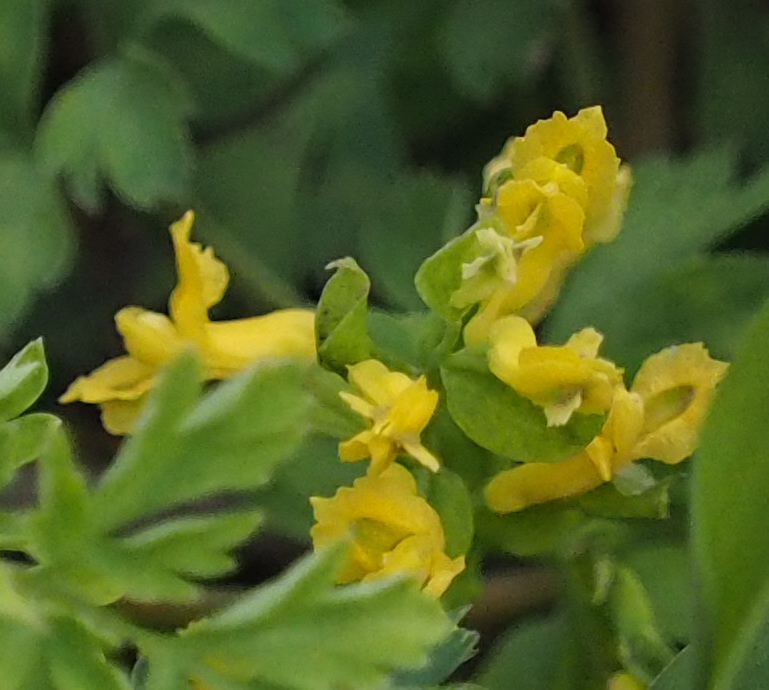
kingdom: Plantae
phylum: Tracheophyta
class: Magnoliopsida
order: Ranunculales
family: Papaveraceae
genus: Corydalis
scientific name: Corydalis flavula
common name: Yellow corydalis
